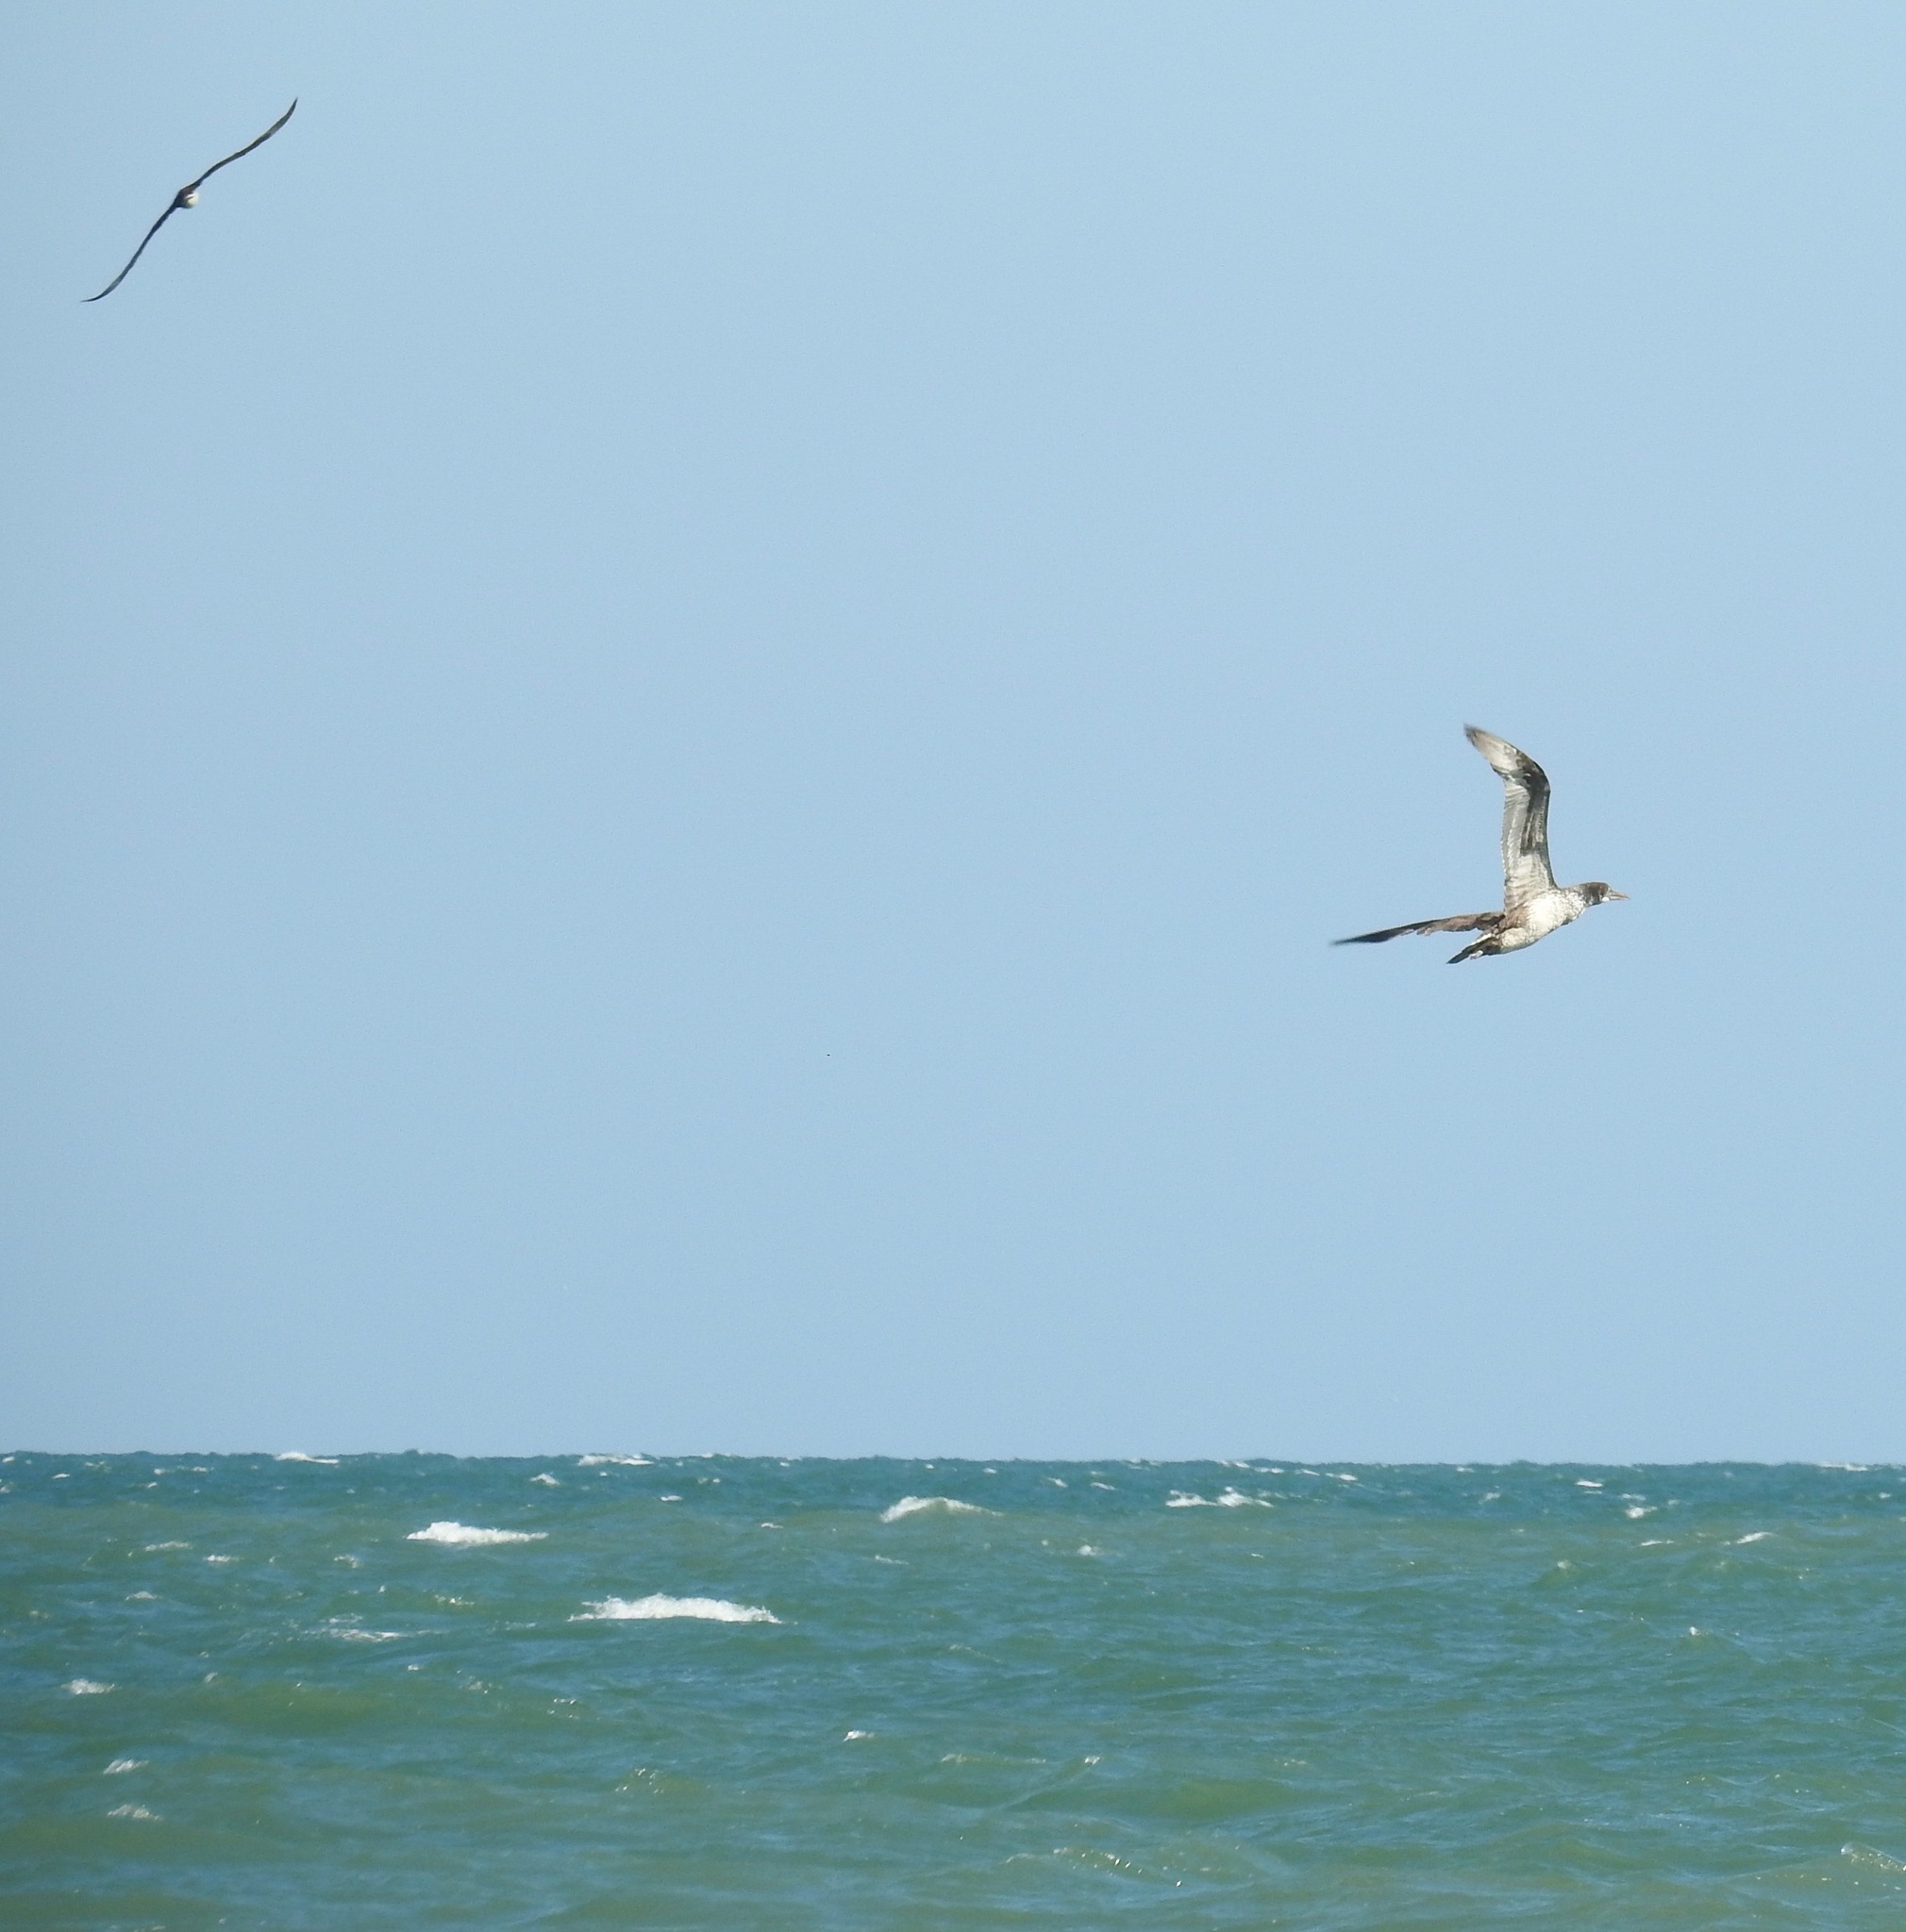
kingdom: Animalia
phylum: Chordata
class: Aves
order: Suliformes
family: Sulidae
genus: Morus
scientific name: Morus bassanus
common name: Northern gannet
